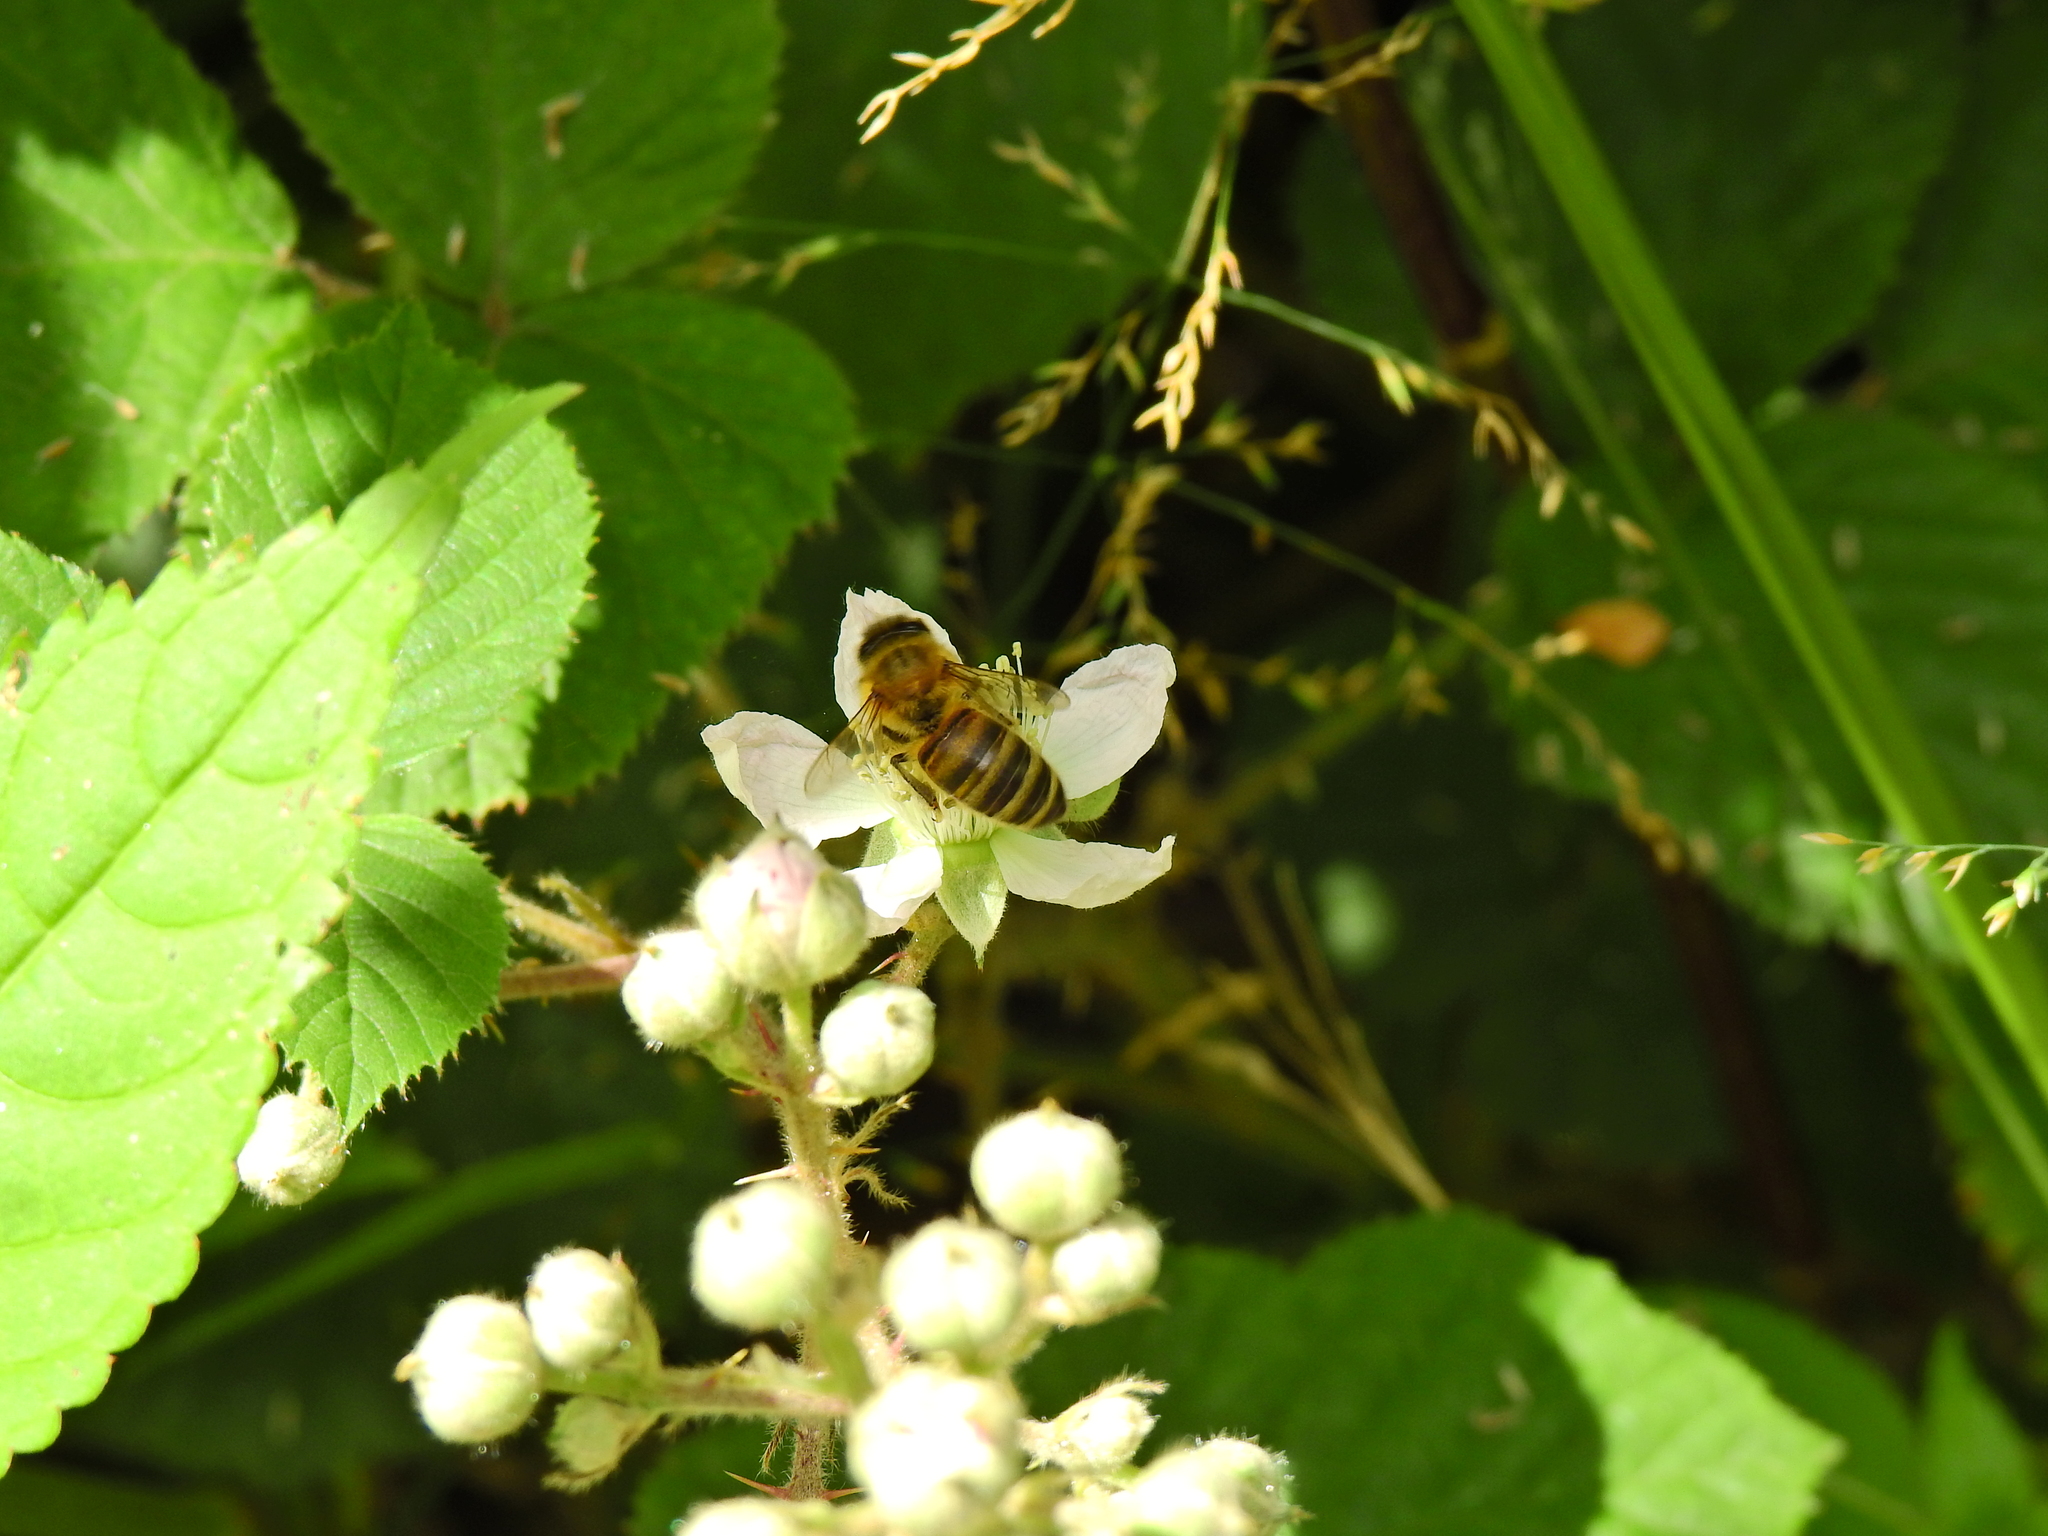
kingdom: Animalia
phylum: Arthropoda
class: Insecta
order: Hymenoptera
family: Apidae
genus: Apis
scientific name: Apis mellifera
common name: Honey bee
